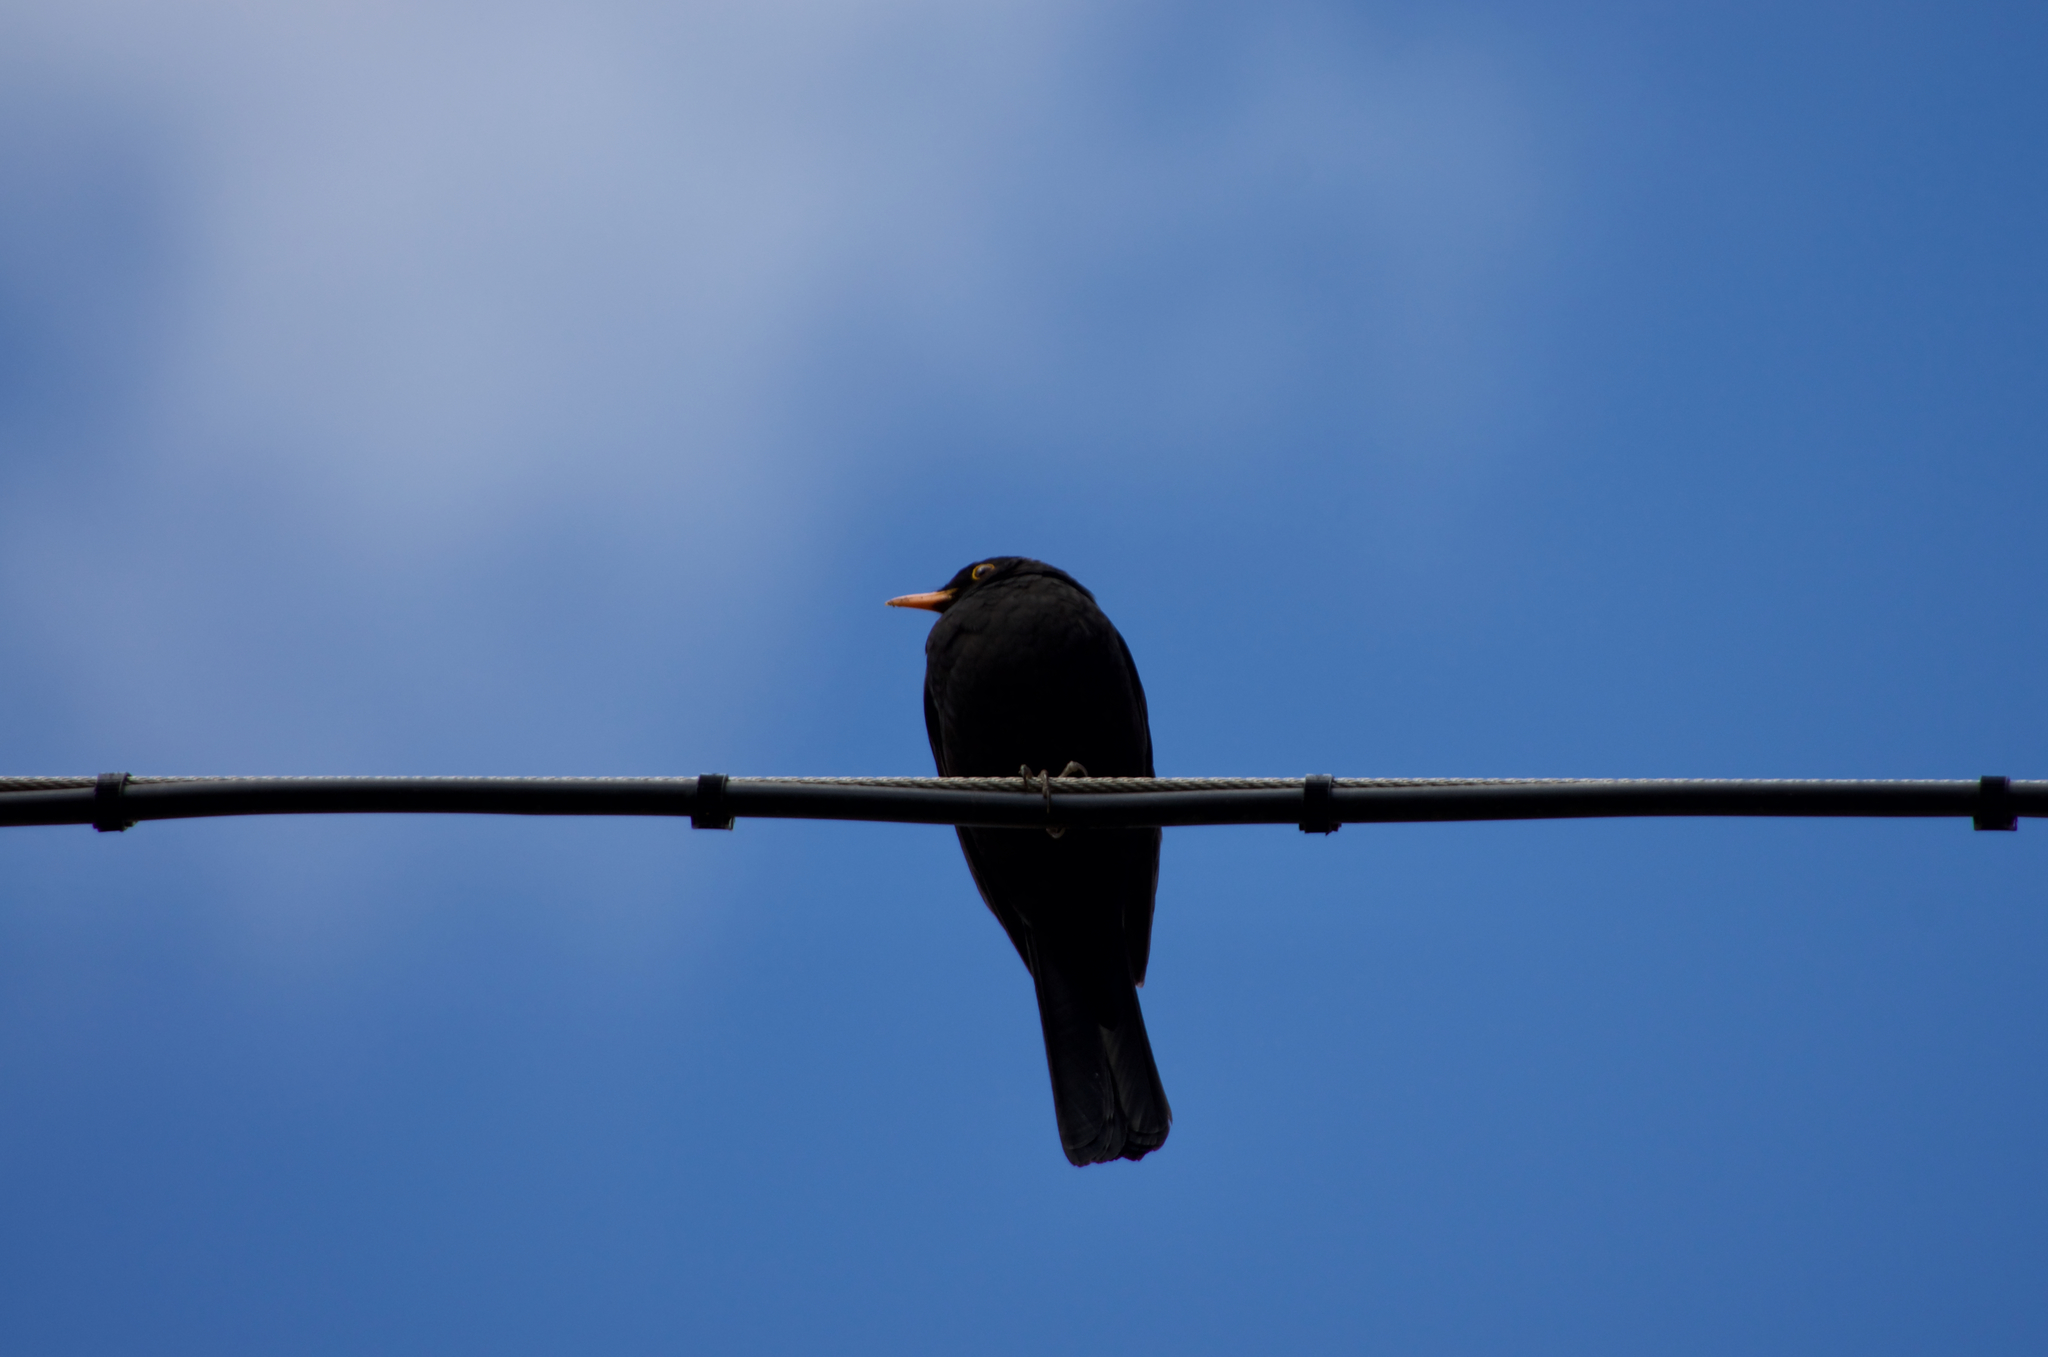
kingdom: Animalia
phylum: Chordata
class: Aves
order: Passeriformes
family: Turdidae
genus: Turdus
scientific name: Turdus merula
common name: Common blackbird
